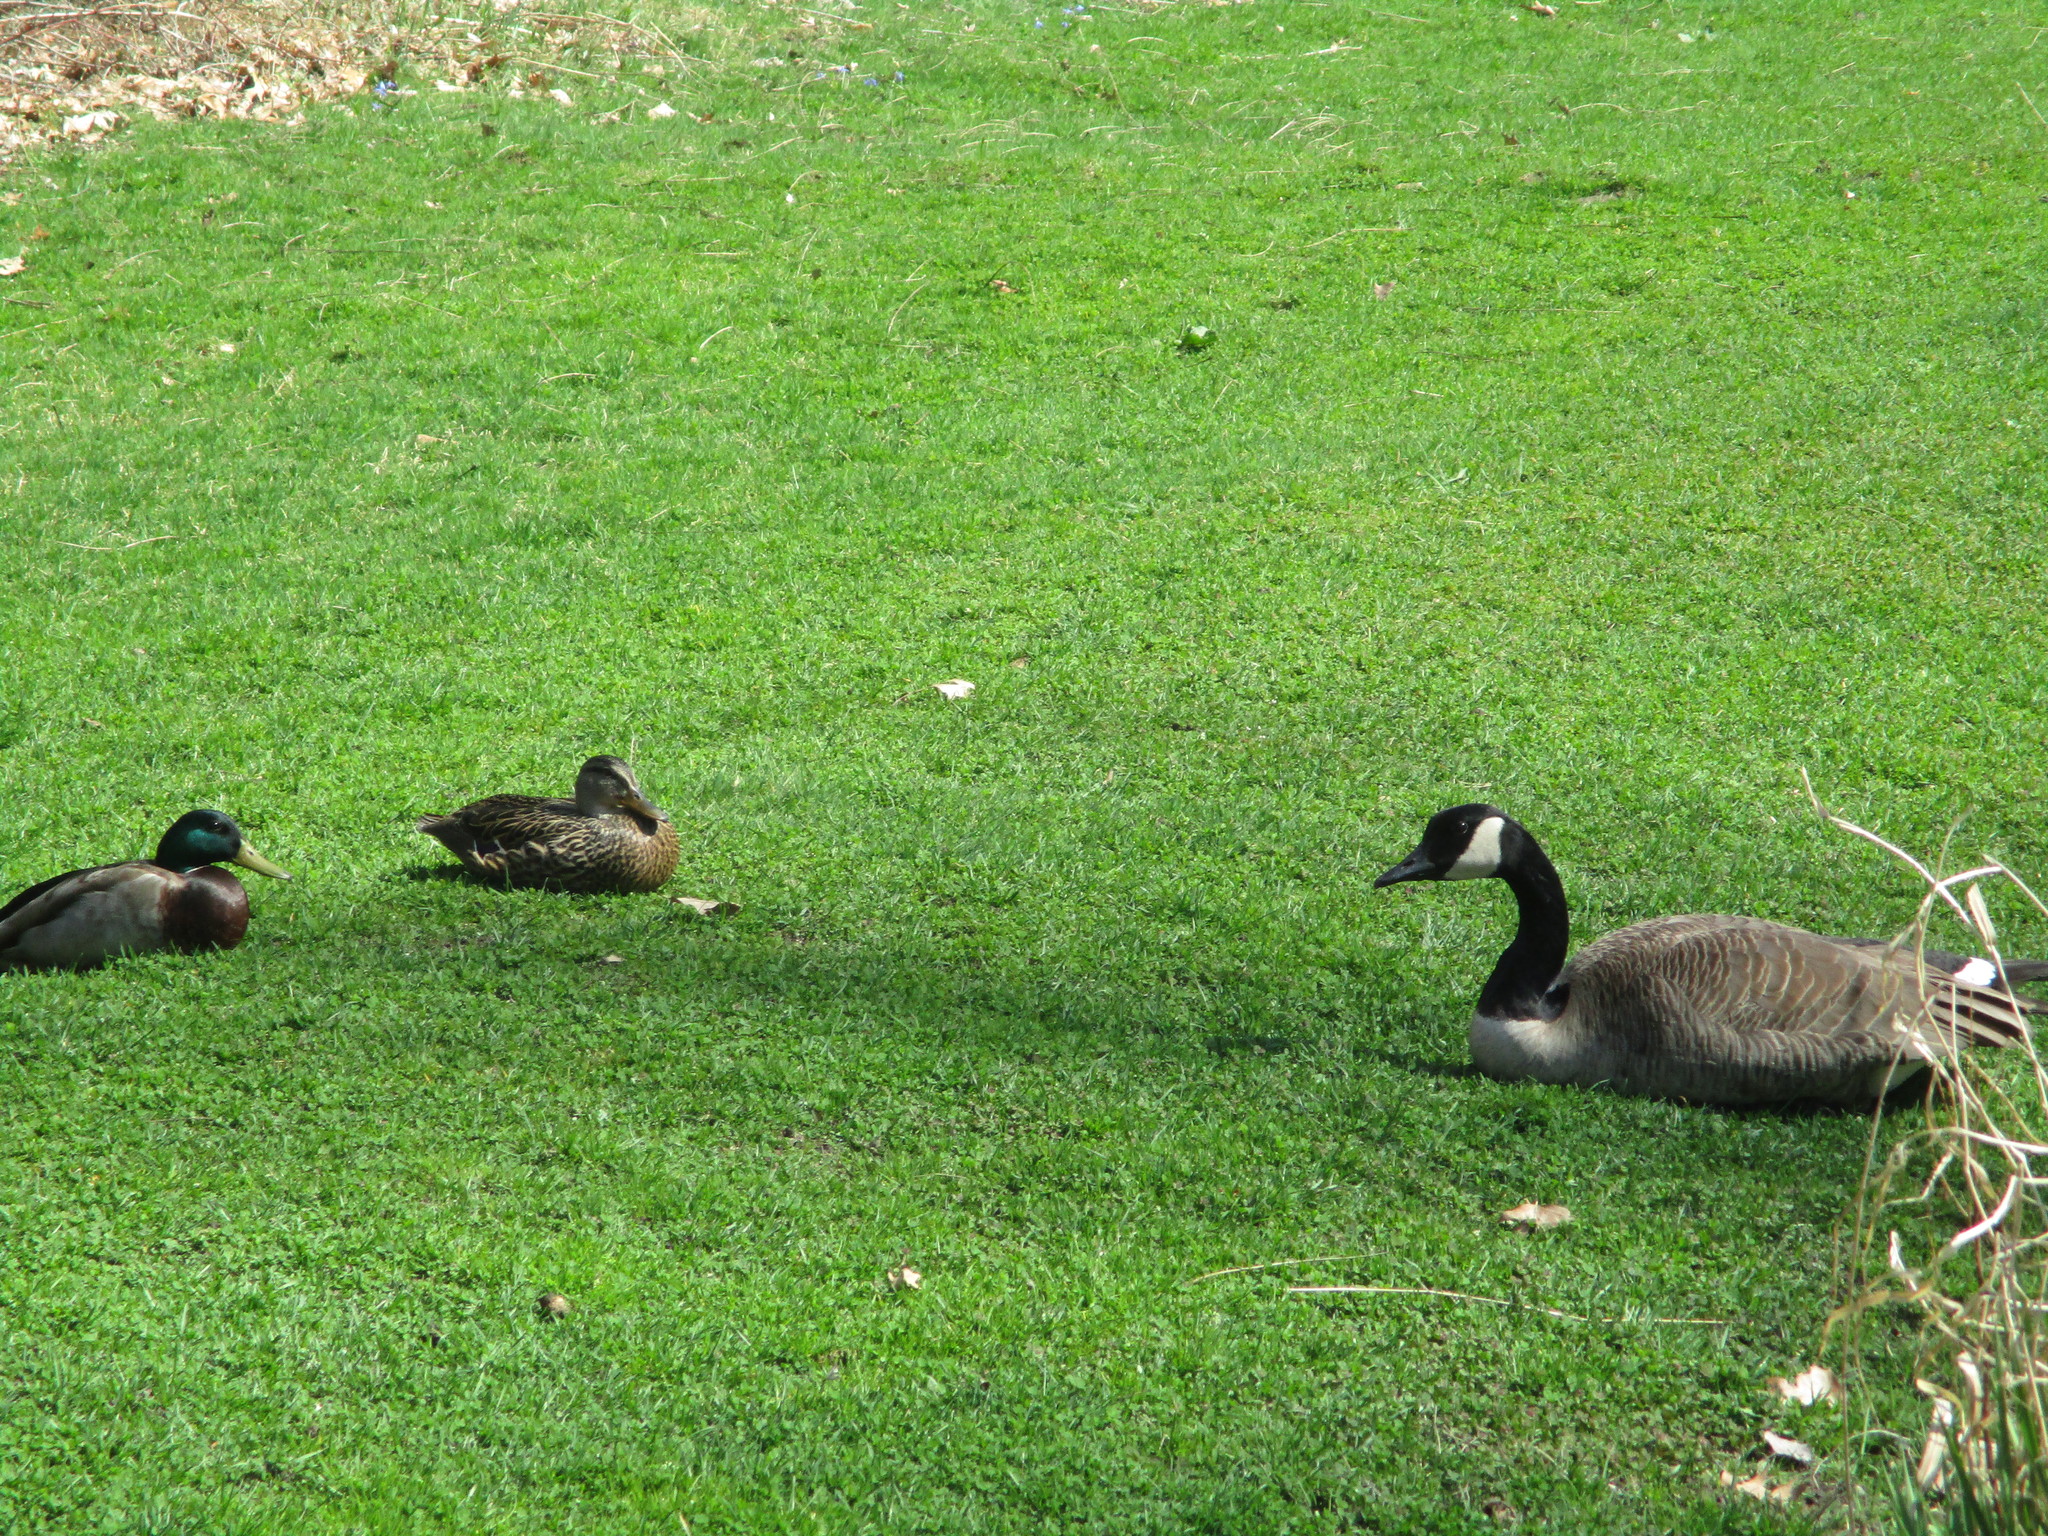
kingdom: Animalia
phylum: Chordata
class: Aves
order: Anseriformes
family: Anatidae
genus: Anas
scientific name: Anas platyrhynchos
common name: Mallard
